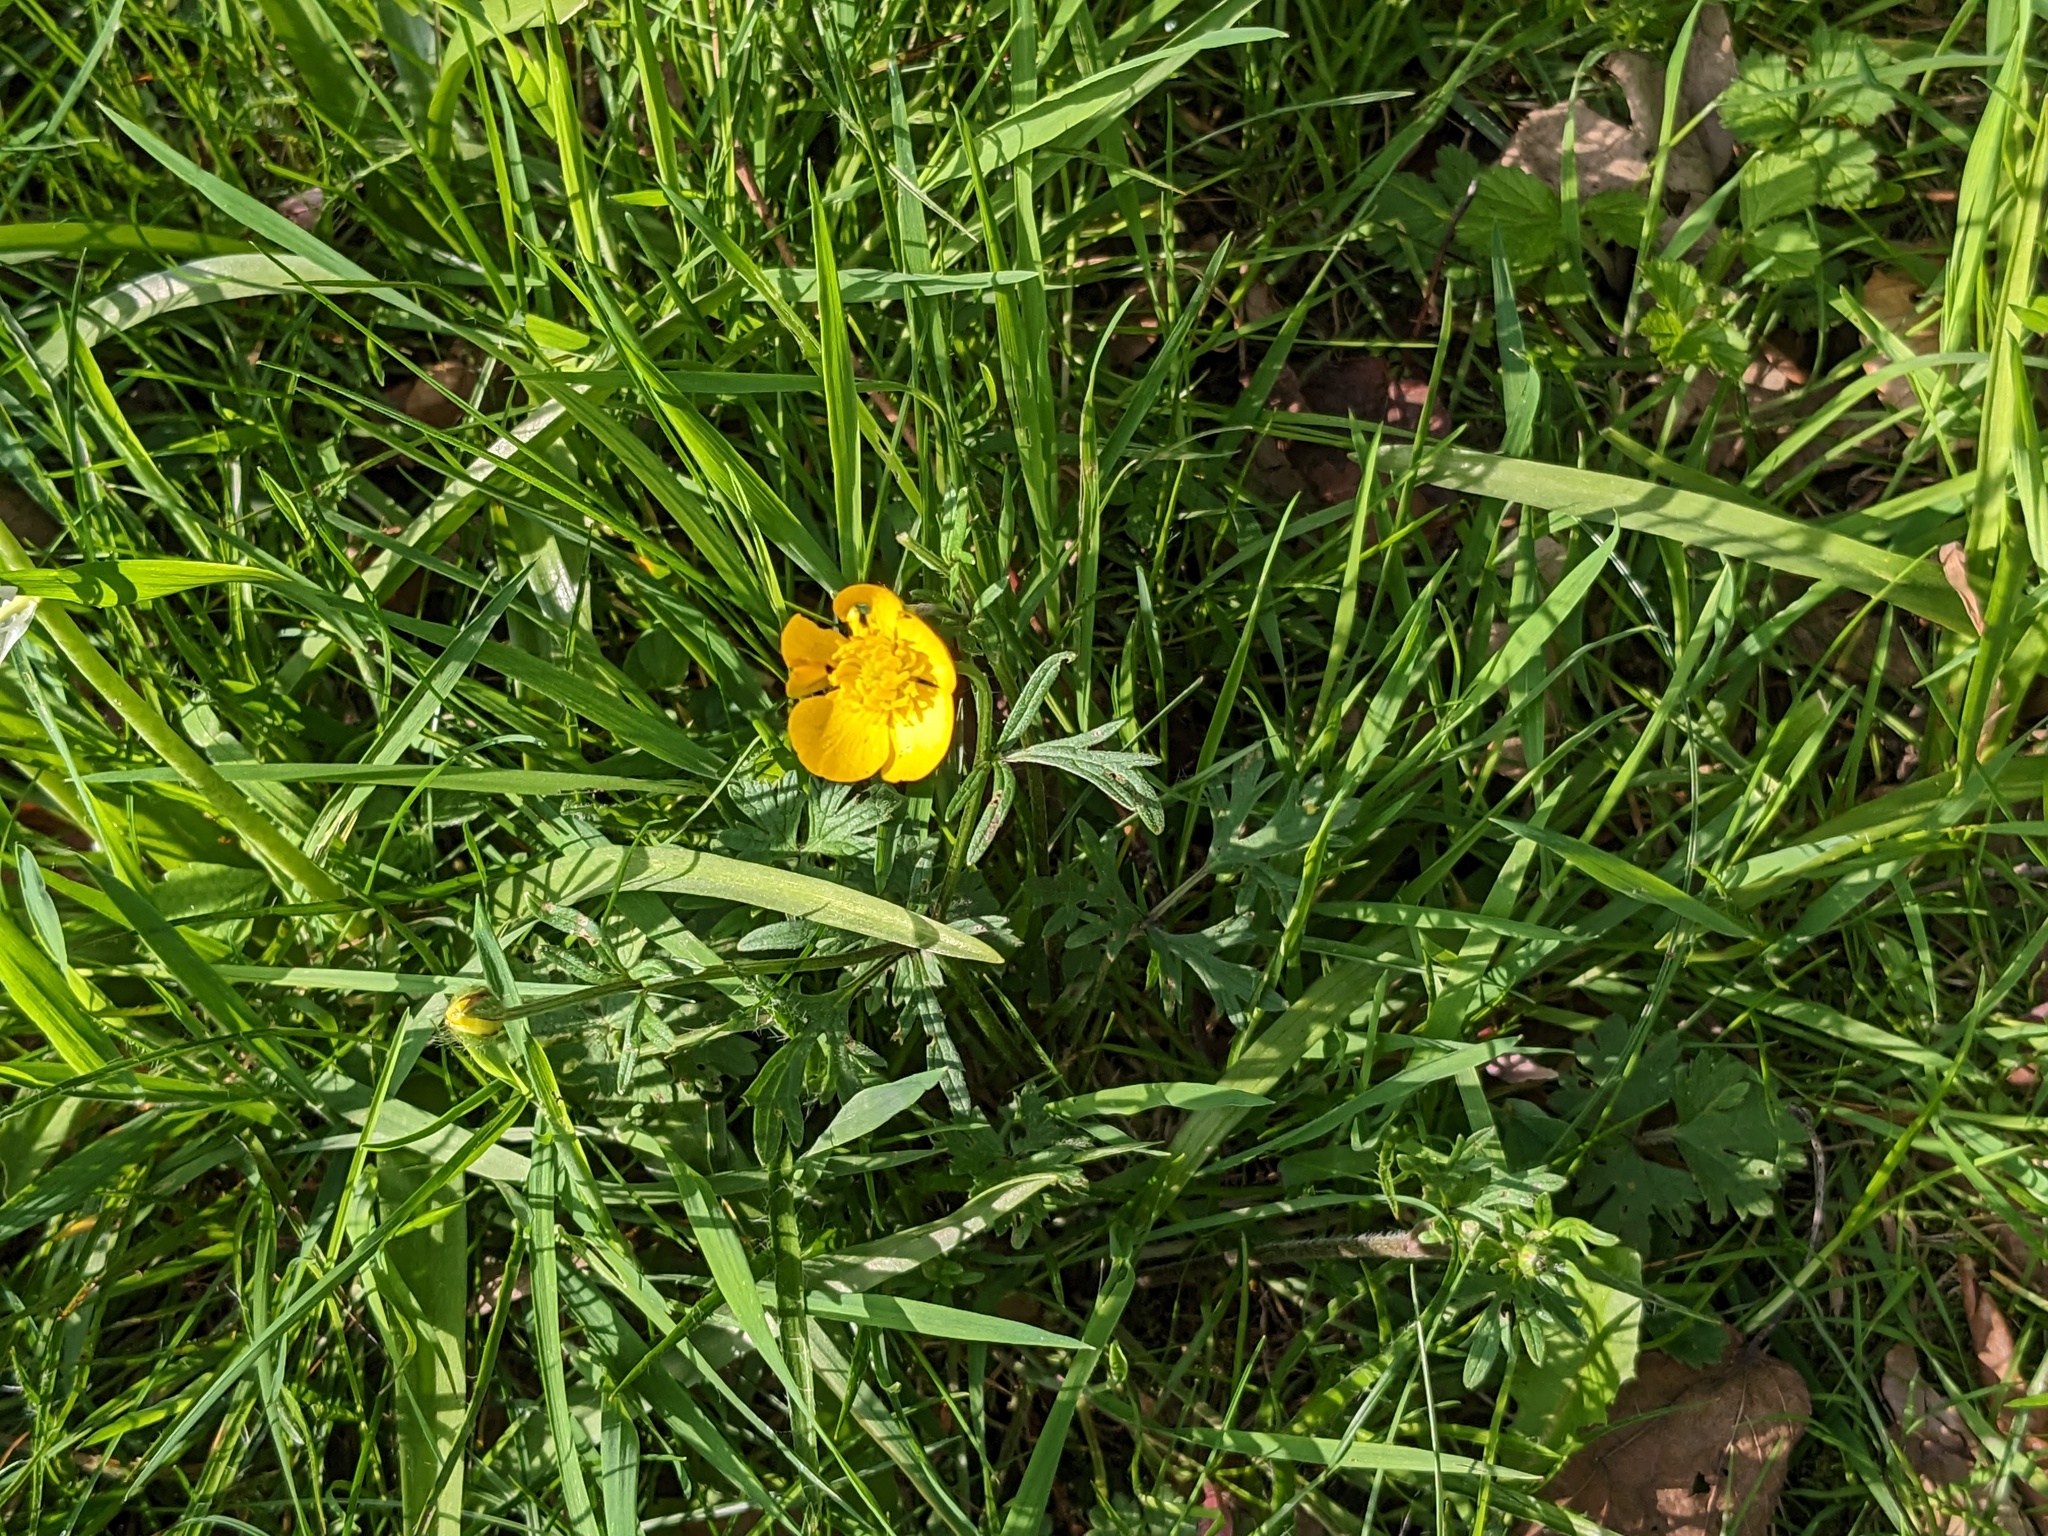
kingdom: Plantae
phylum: Tracheophyta
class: Magnoliopsida
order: Ranunculales
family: Ranunculaceae
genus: Ranunculus
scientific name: Ranunculus acris
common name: Meadow buttercup
